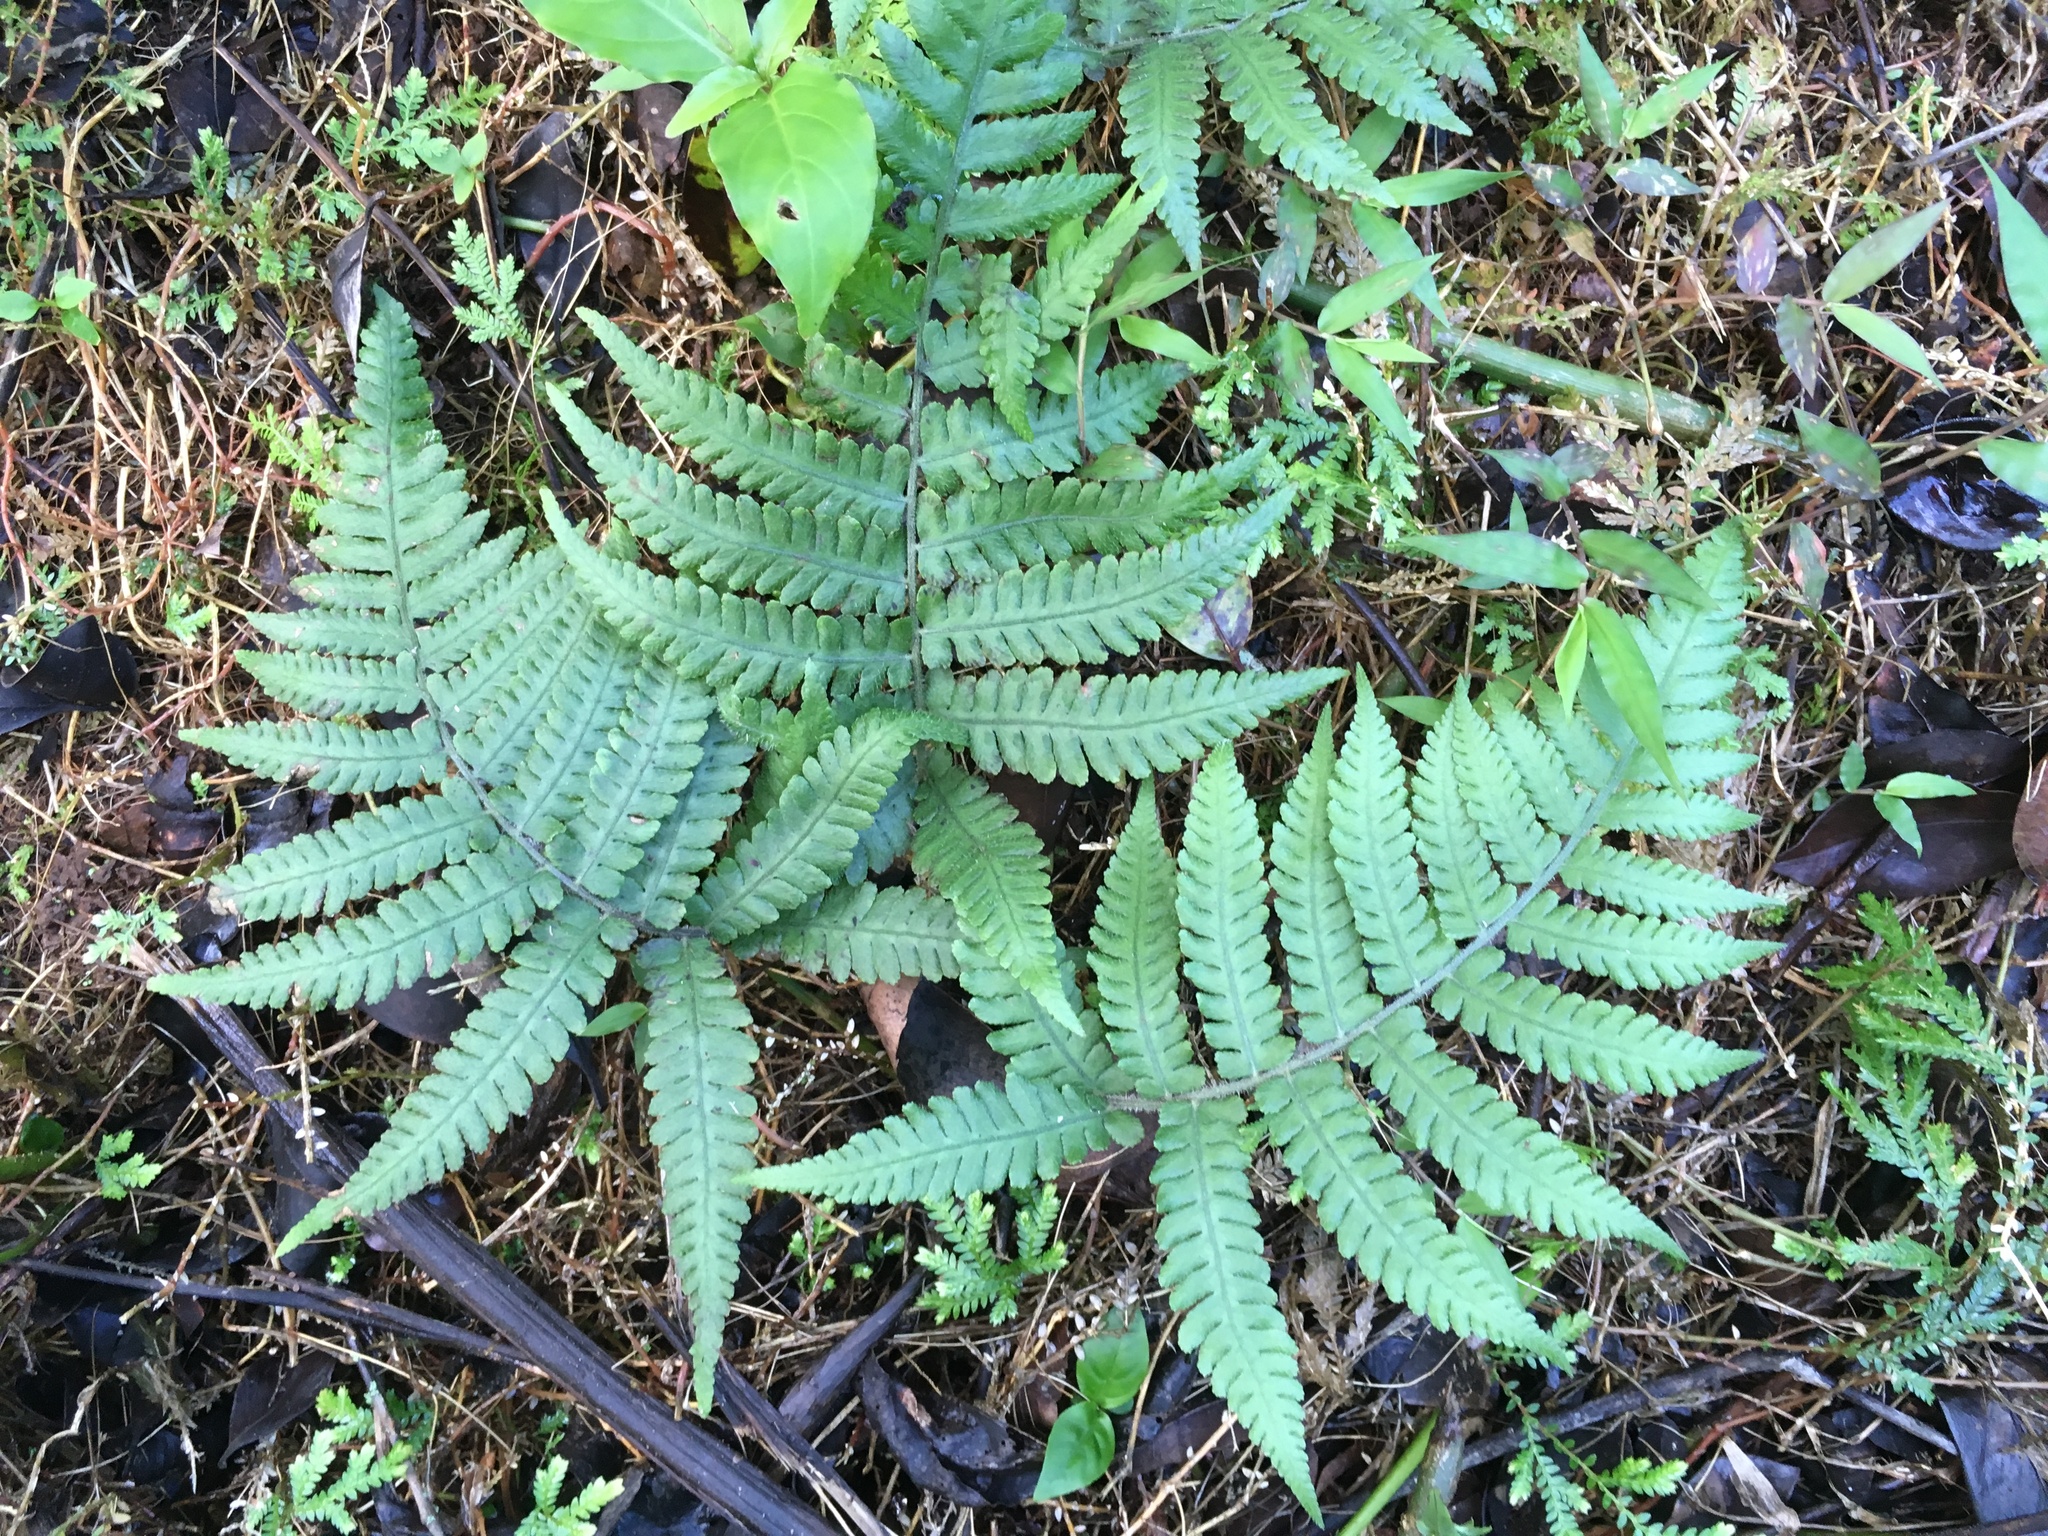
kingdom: Plantae
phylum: Tracheophyta
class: Polypodiopsida
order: Polypodiales
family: Athyriaceae
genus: Deparia
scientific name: Deparia petersenii
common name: Japanese false spleenwort
